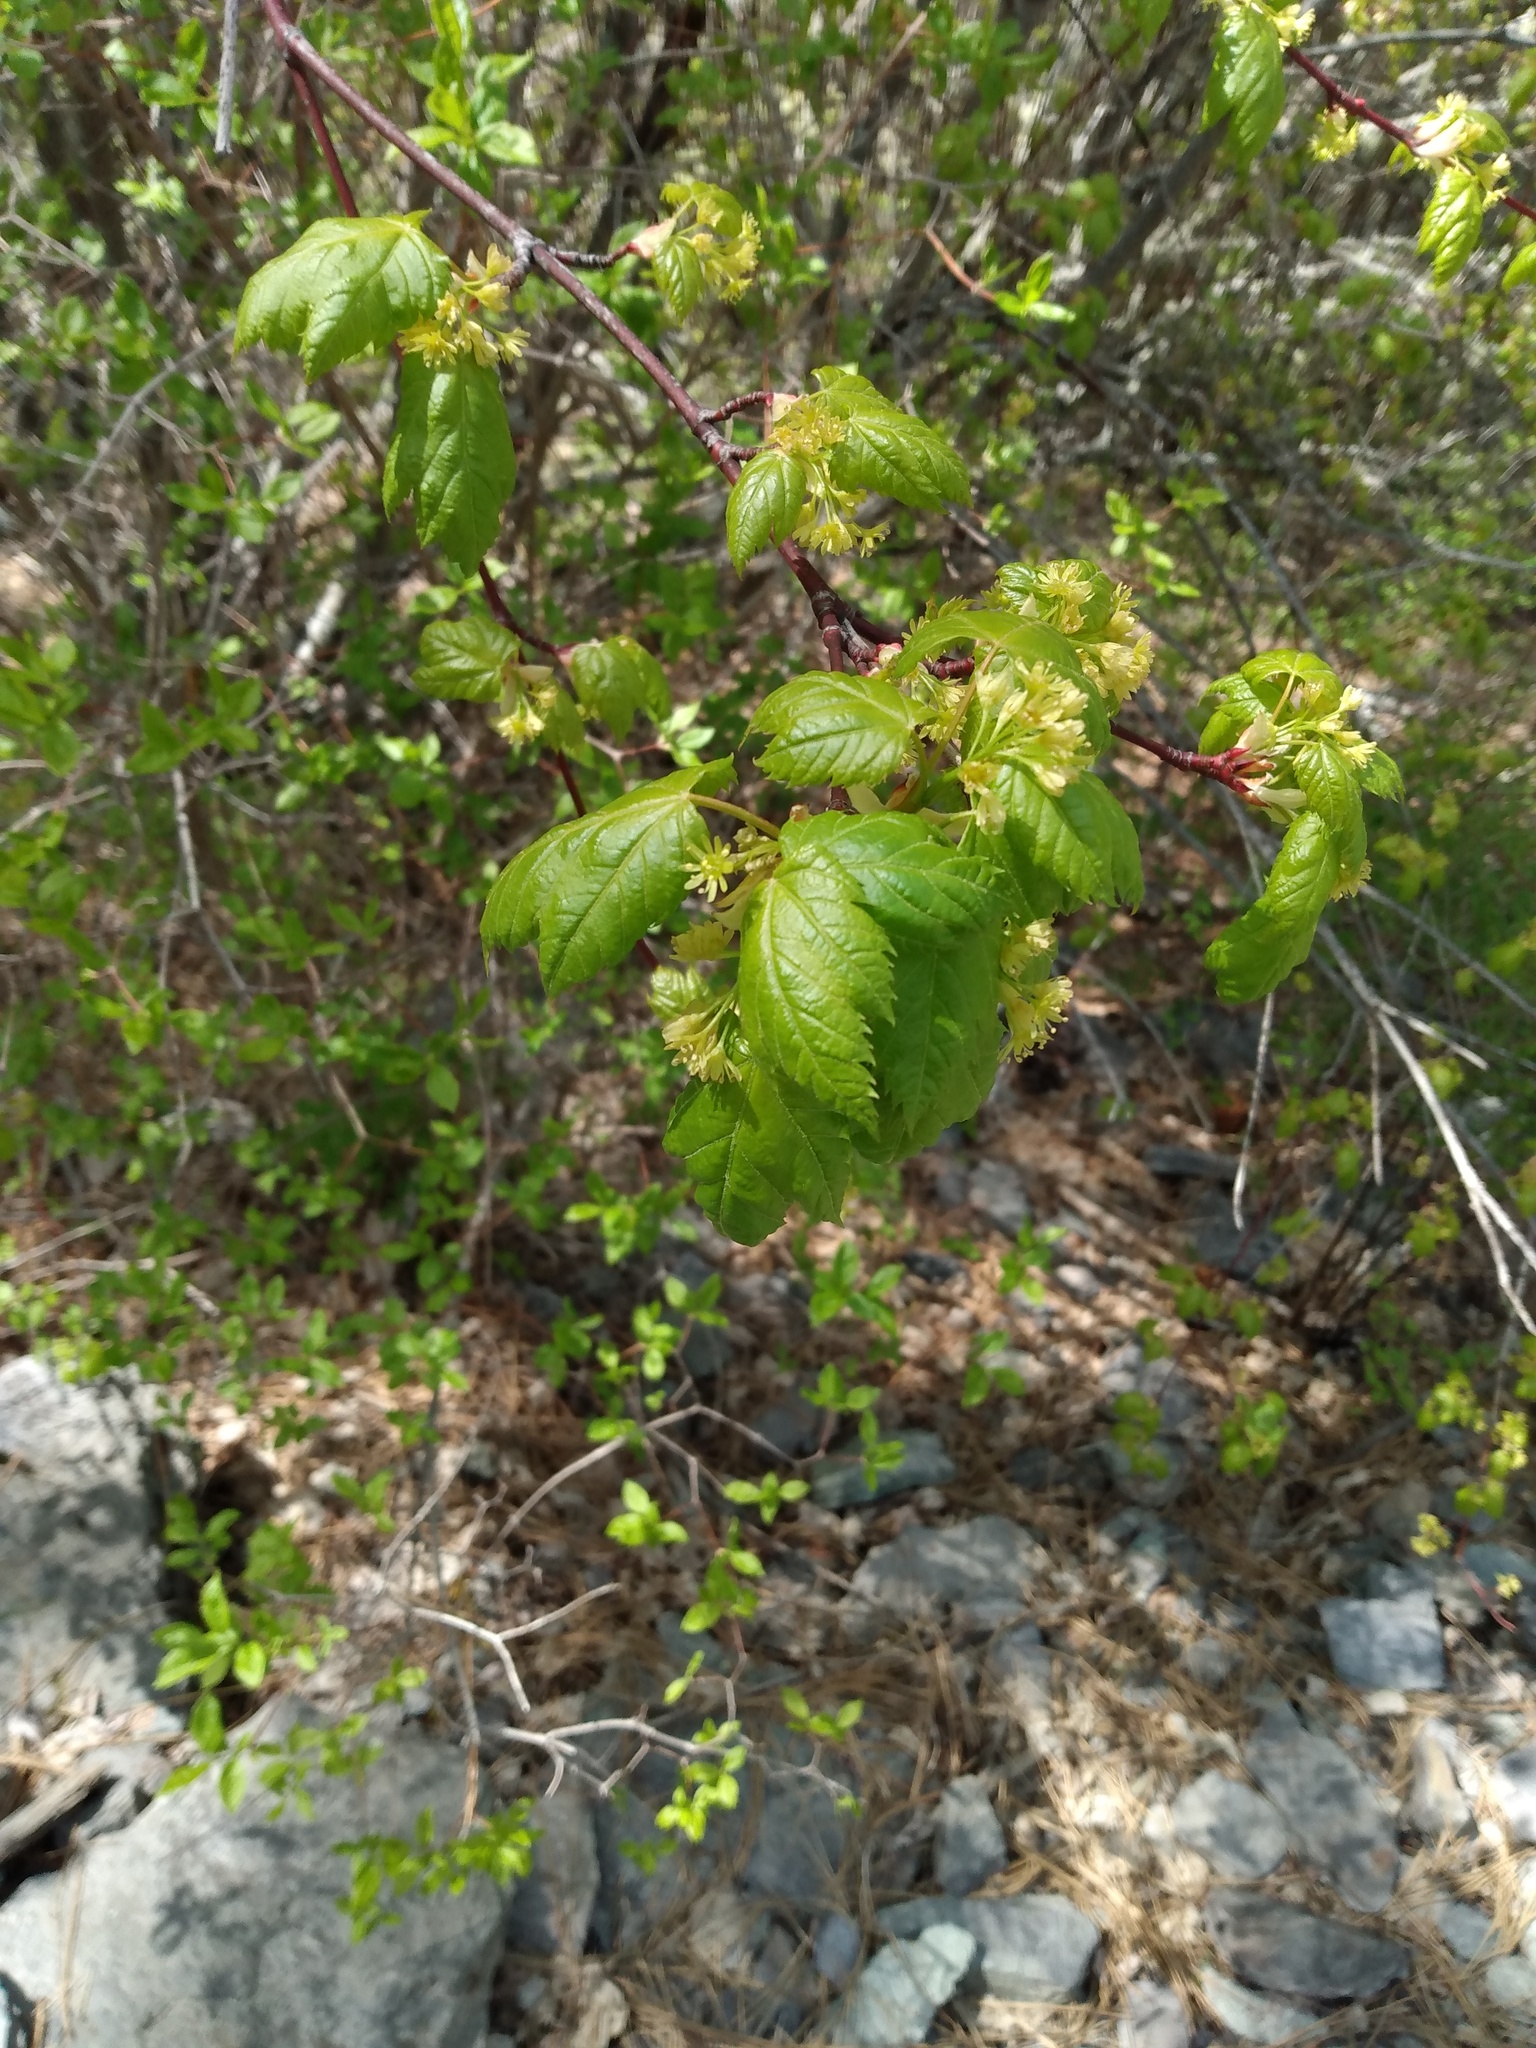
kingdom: Plantae
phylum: Tracheophyta
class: Magnoliopsida
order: Sapindales
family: Sapindaceae
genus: Acer
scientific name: Acer glabrum
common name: Rocky mountain maple
